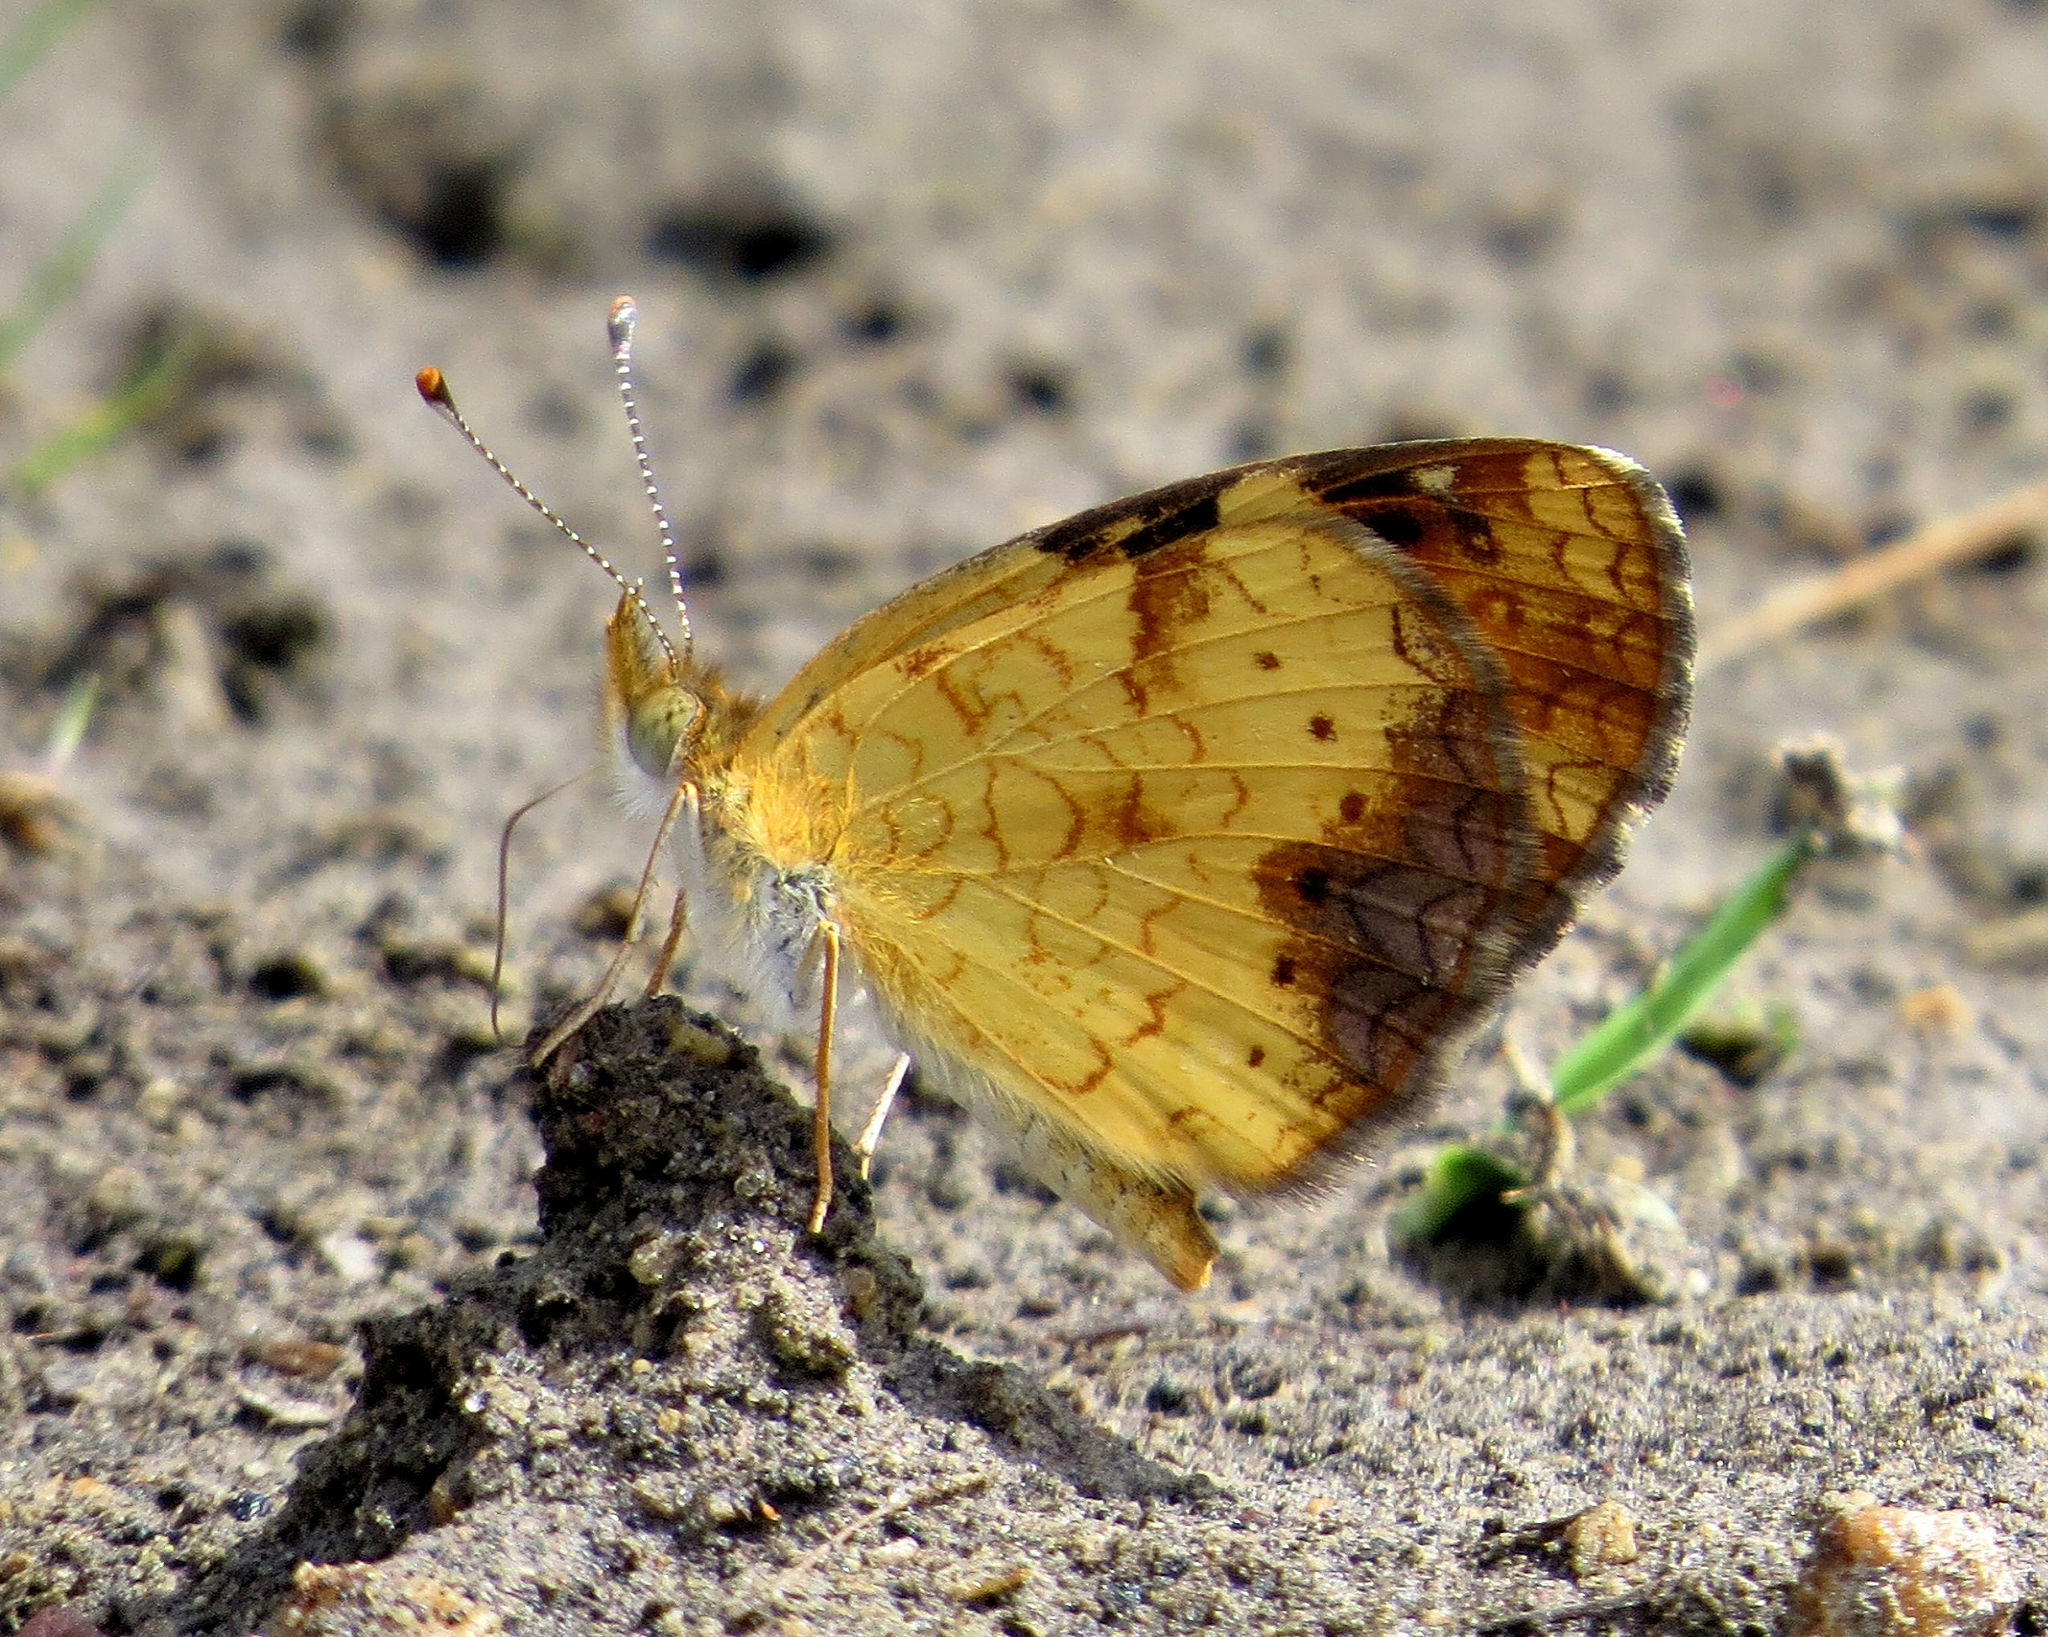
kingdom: Animalia
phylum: Arthropoda
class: Insecta
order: Lepidoptera
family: Nymphalidae
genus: Phyciodes
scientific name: Phyciodes tharos
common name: Pearl crescent
